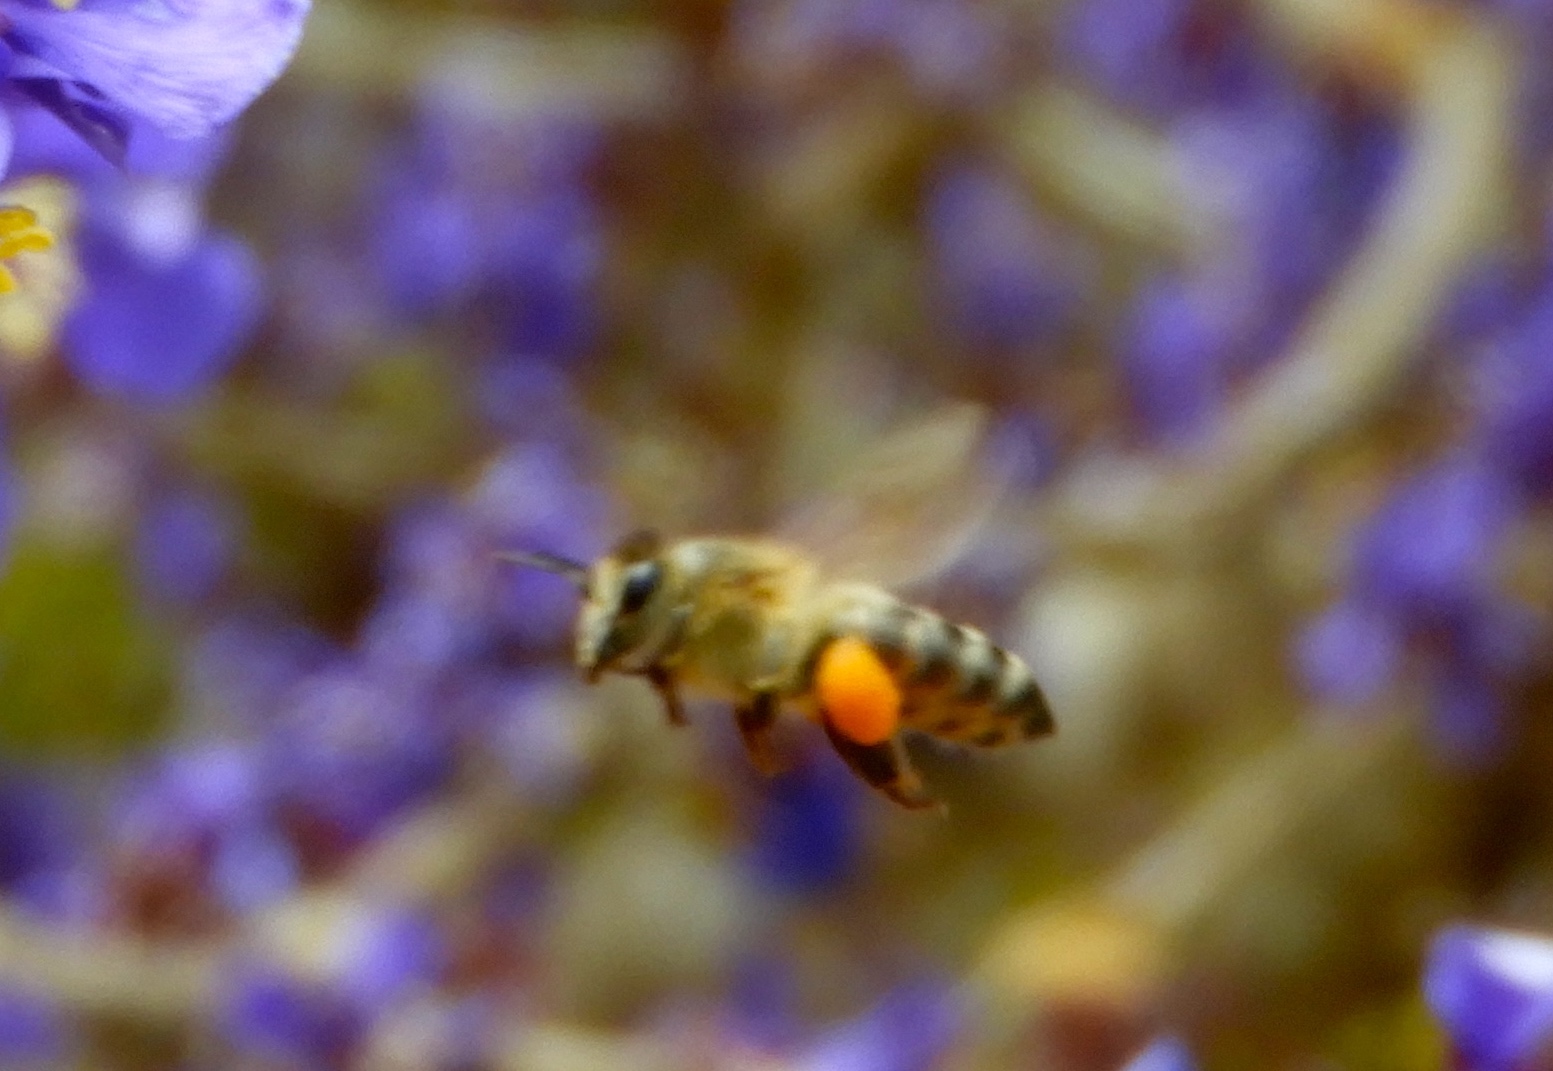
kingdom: Animalia
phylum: Arthropoda
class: Insecta
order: Hymenoptera
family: Apidae
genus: Apis
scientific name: Apis mellifera
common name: Honey bee
